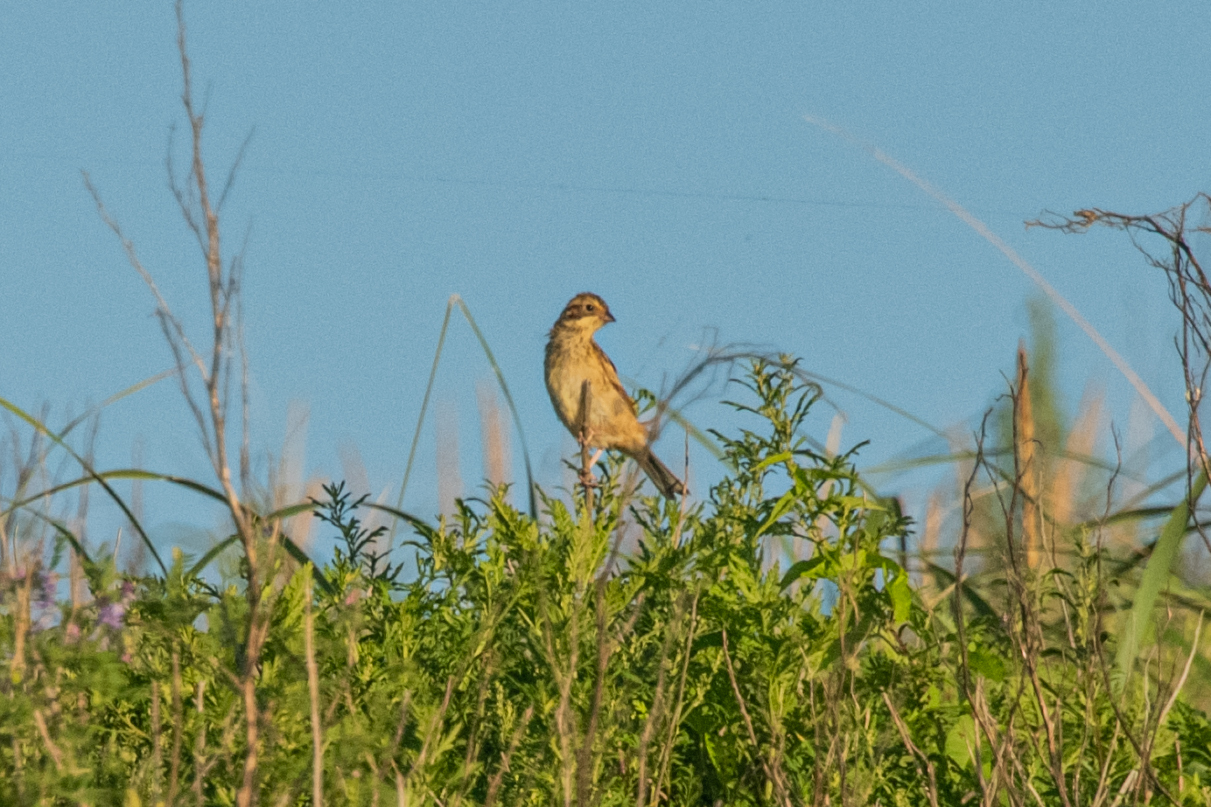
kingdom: Animalia
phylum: Chordata
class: Aves
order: Passeriformes
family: Emberizidae
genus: Emberiza
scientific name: Emberiza spodocephala
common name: Black-faced bunting
